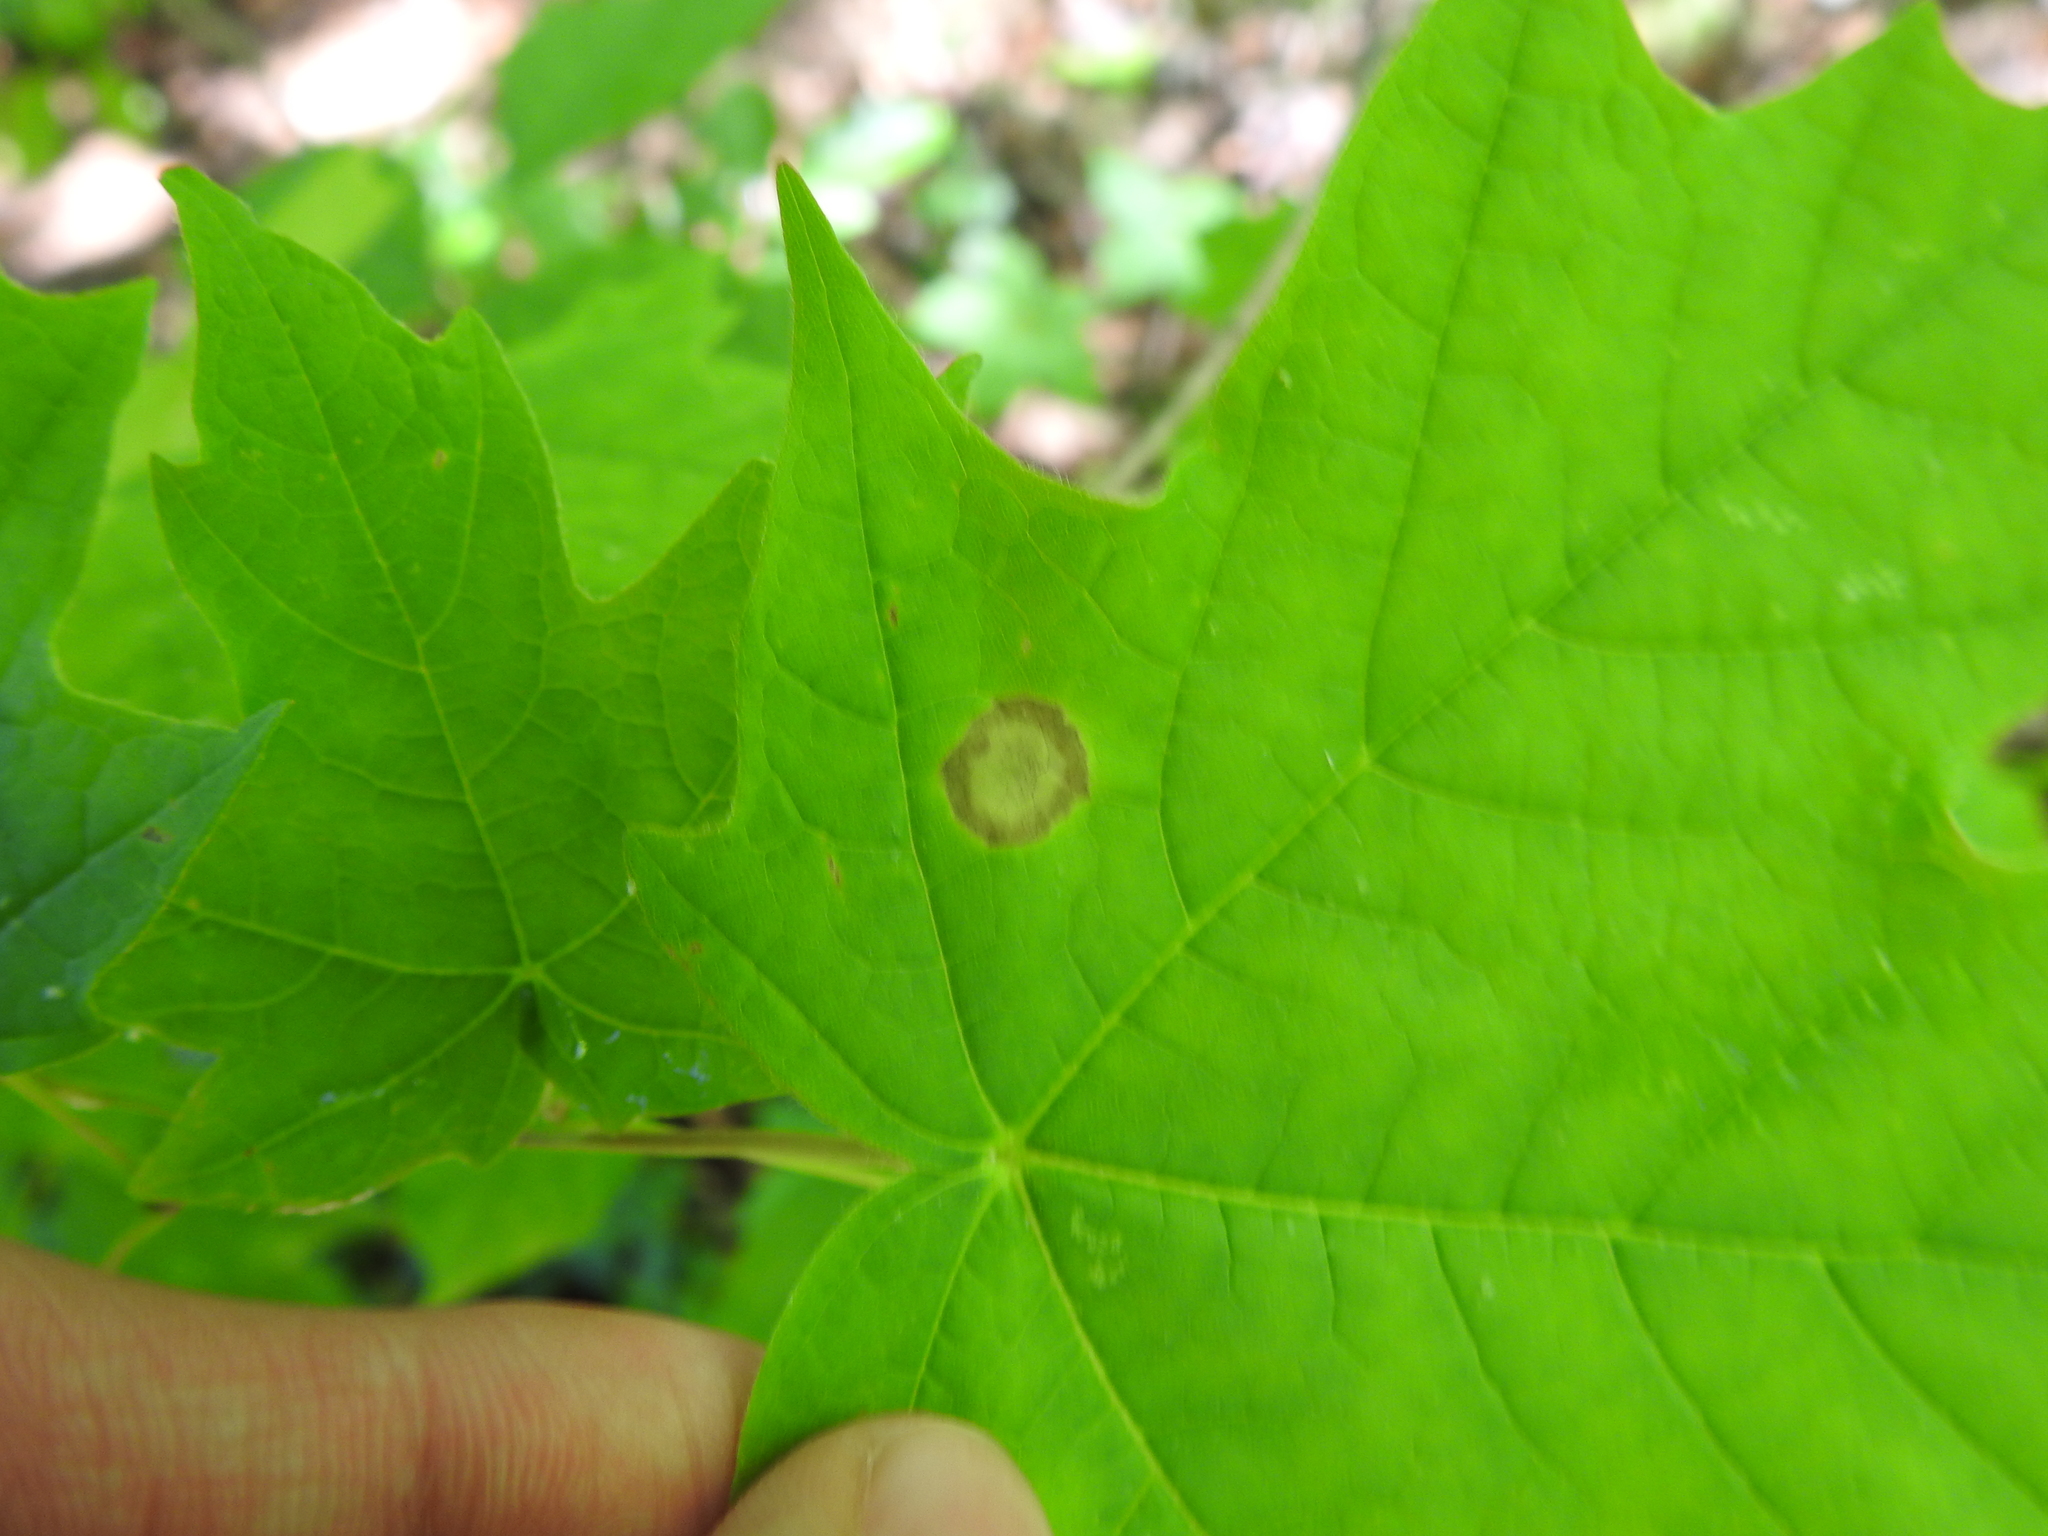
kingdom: Animalia
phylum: Arthropoda
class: Insecta
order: Diptera
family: Cecidomyiidae
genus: Acericecis
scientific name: Acericecis ocellaris
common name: Ocellate gall midge
